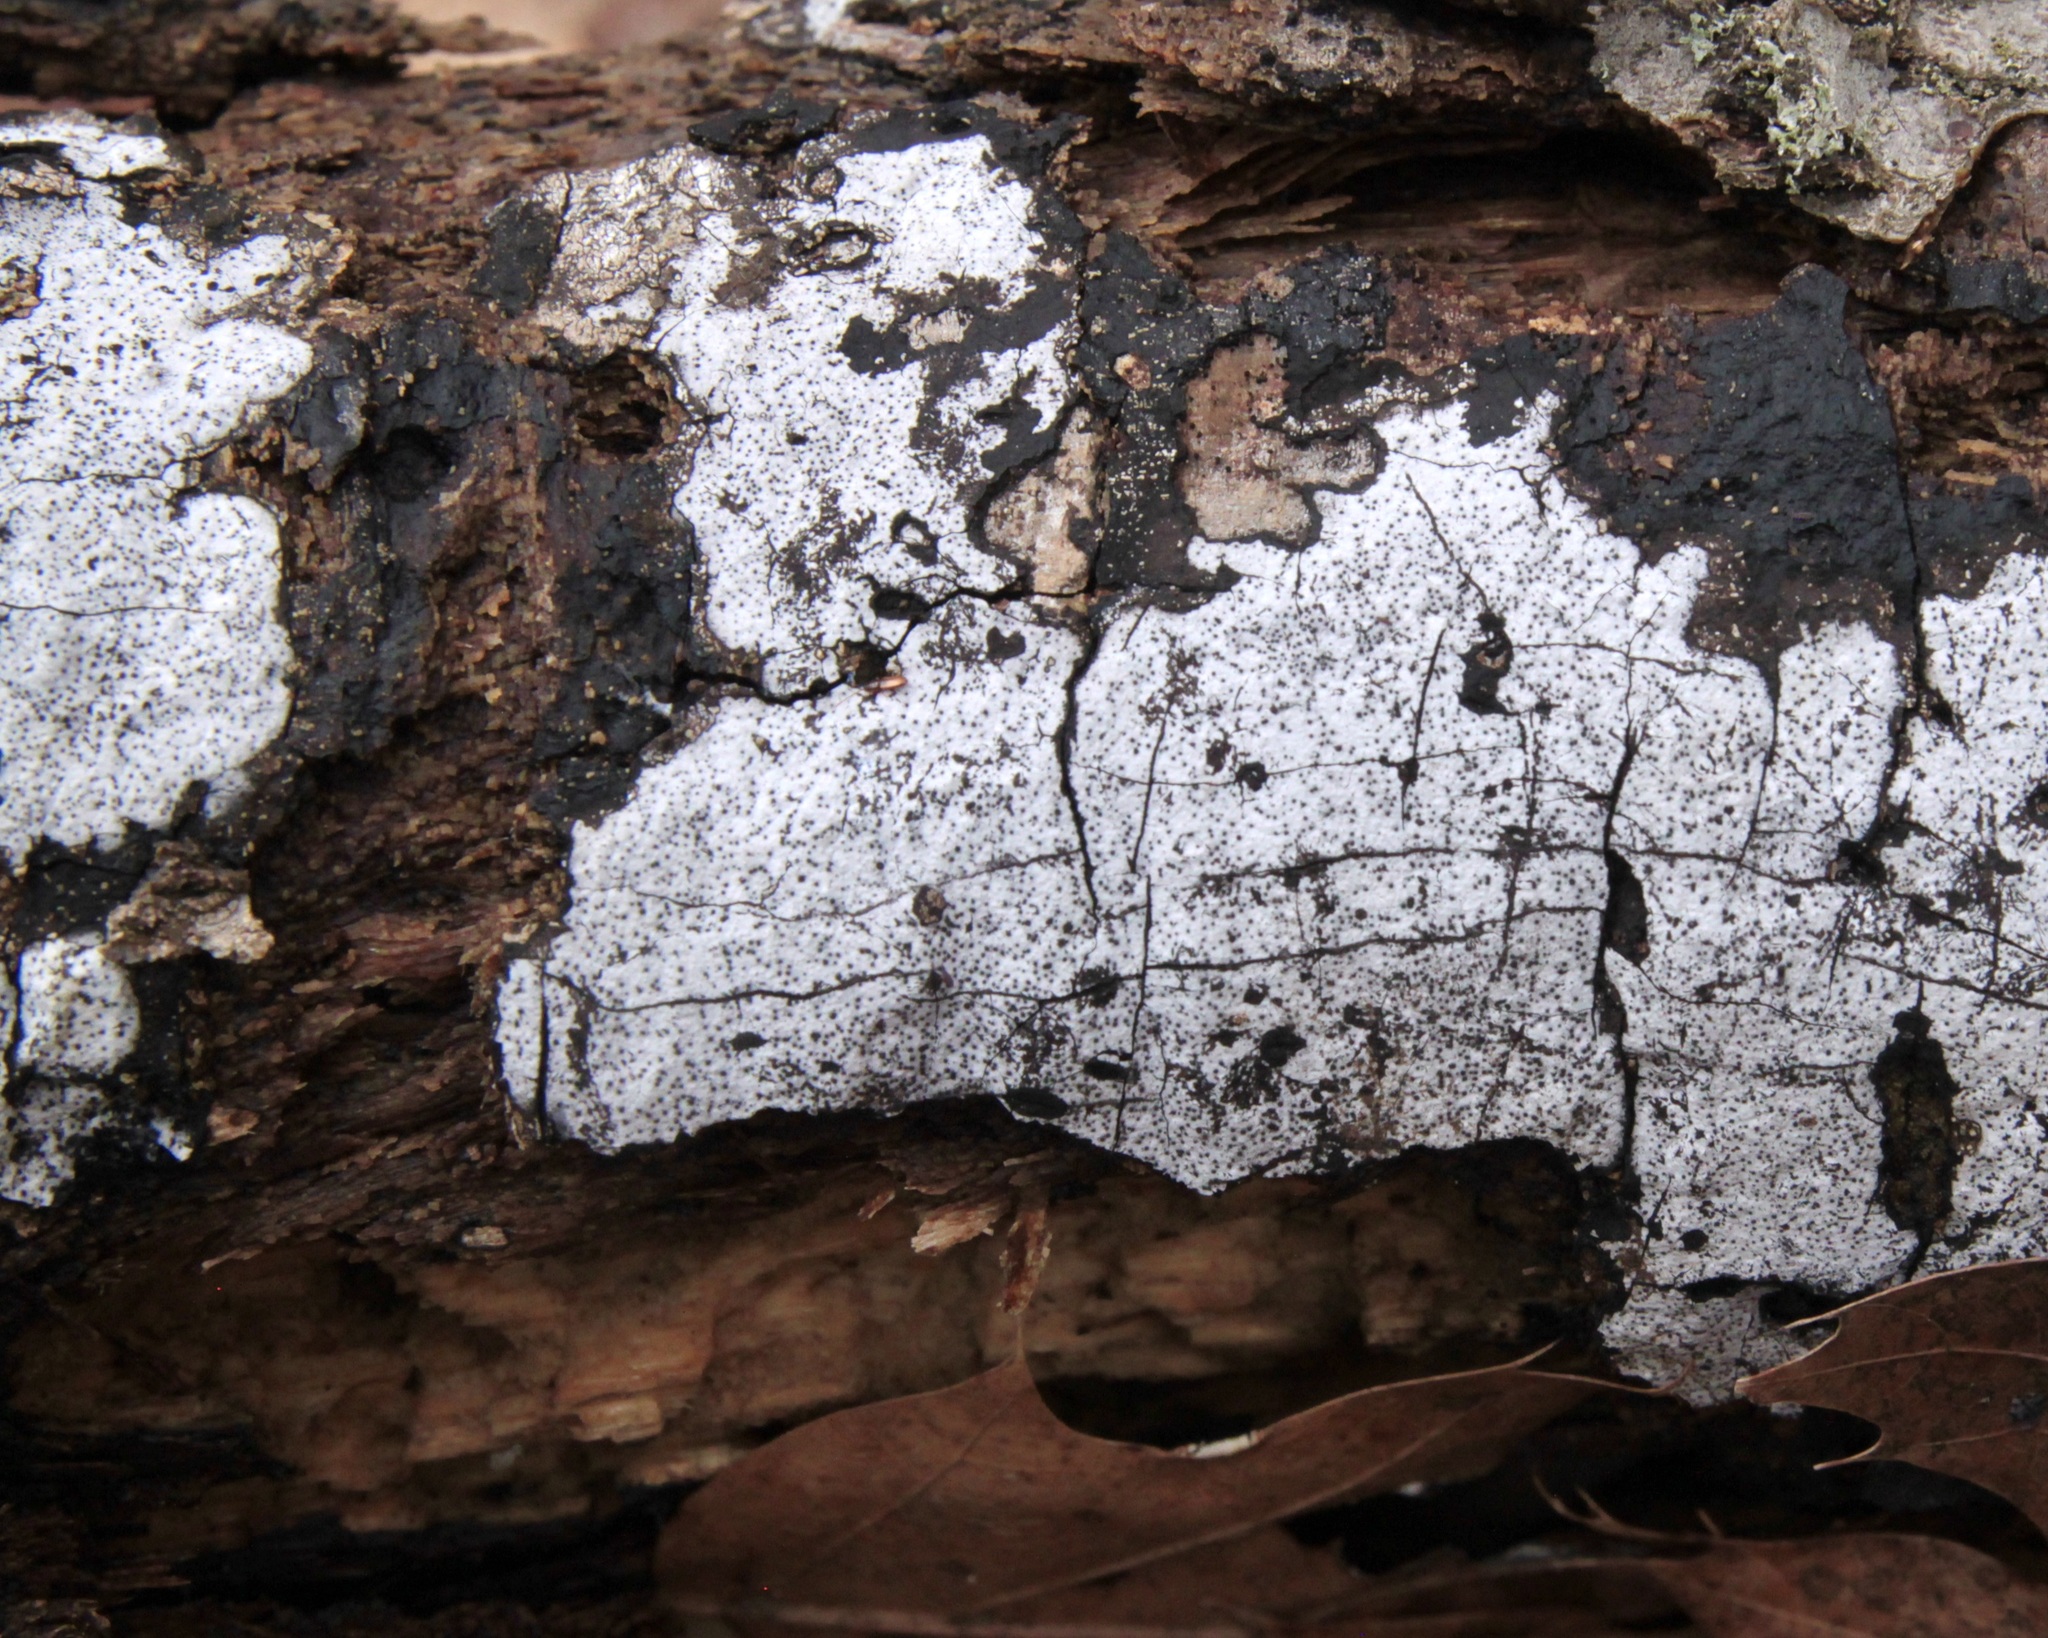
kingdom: Fungi
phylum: Ascomycota
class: Sordariomycetes
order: Xylariales
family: Graphostromataceae
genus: Biscogniauxia
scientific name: Biscogniauxia atropunctata
